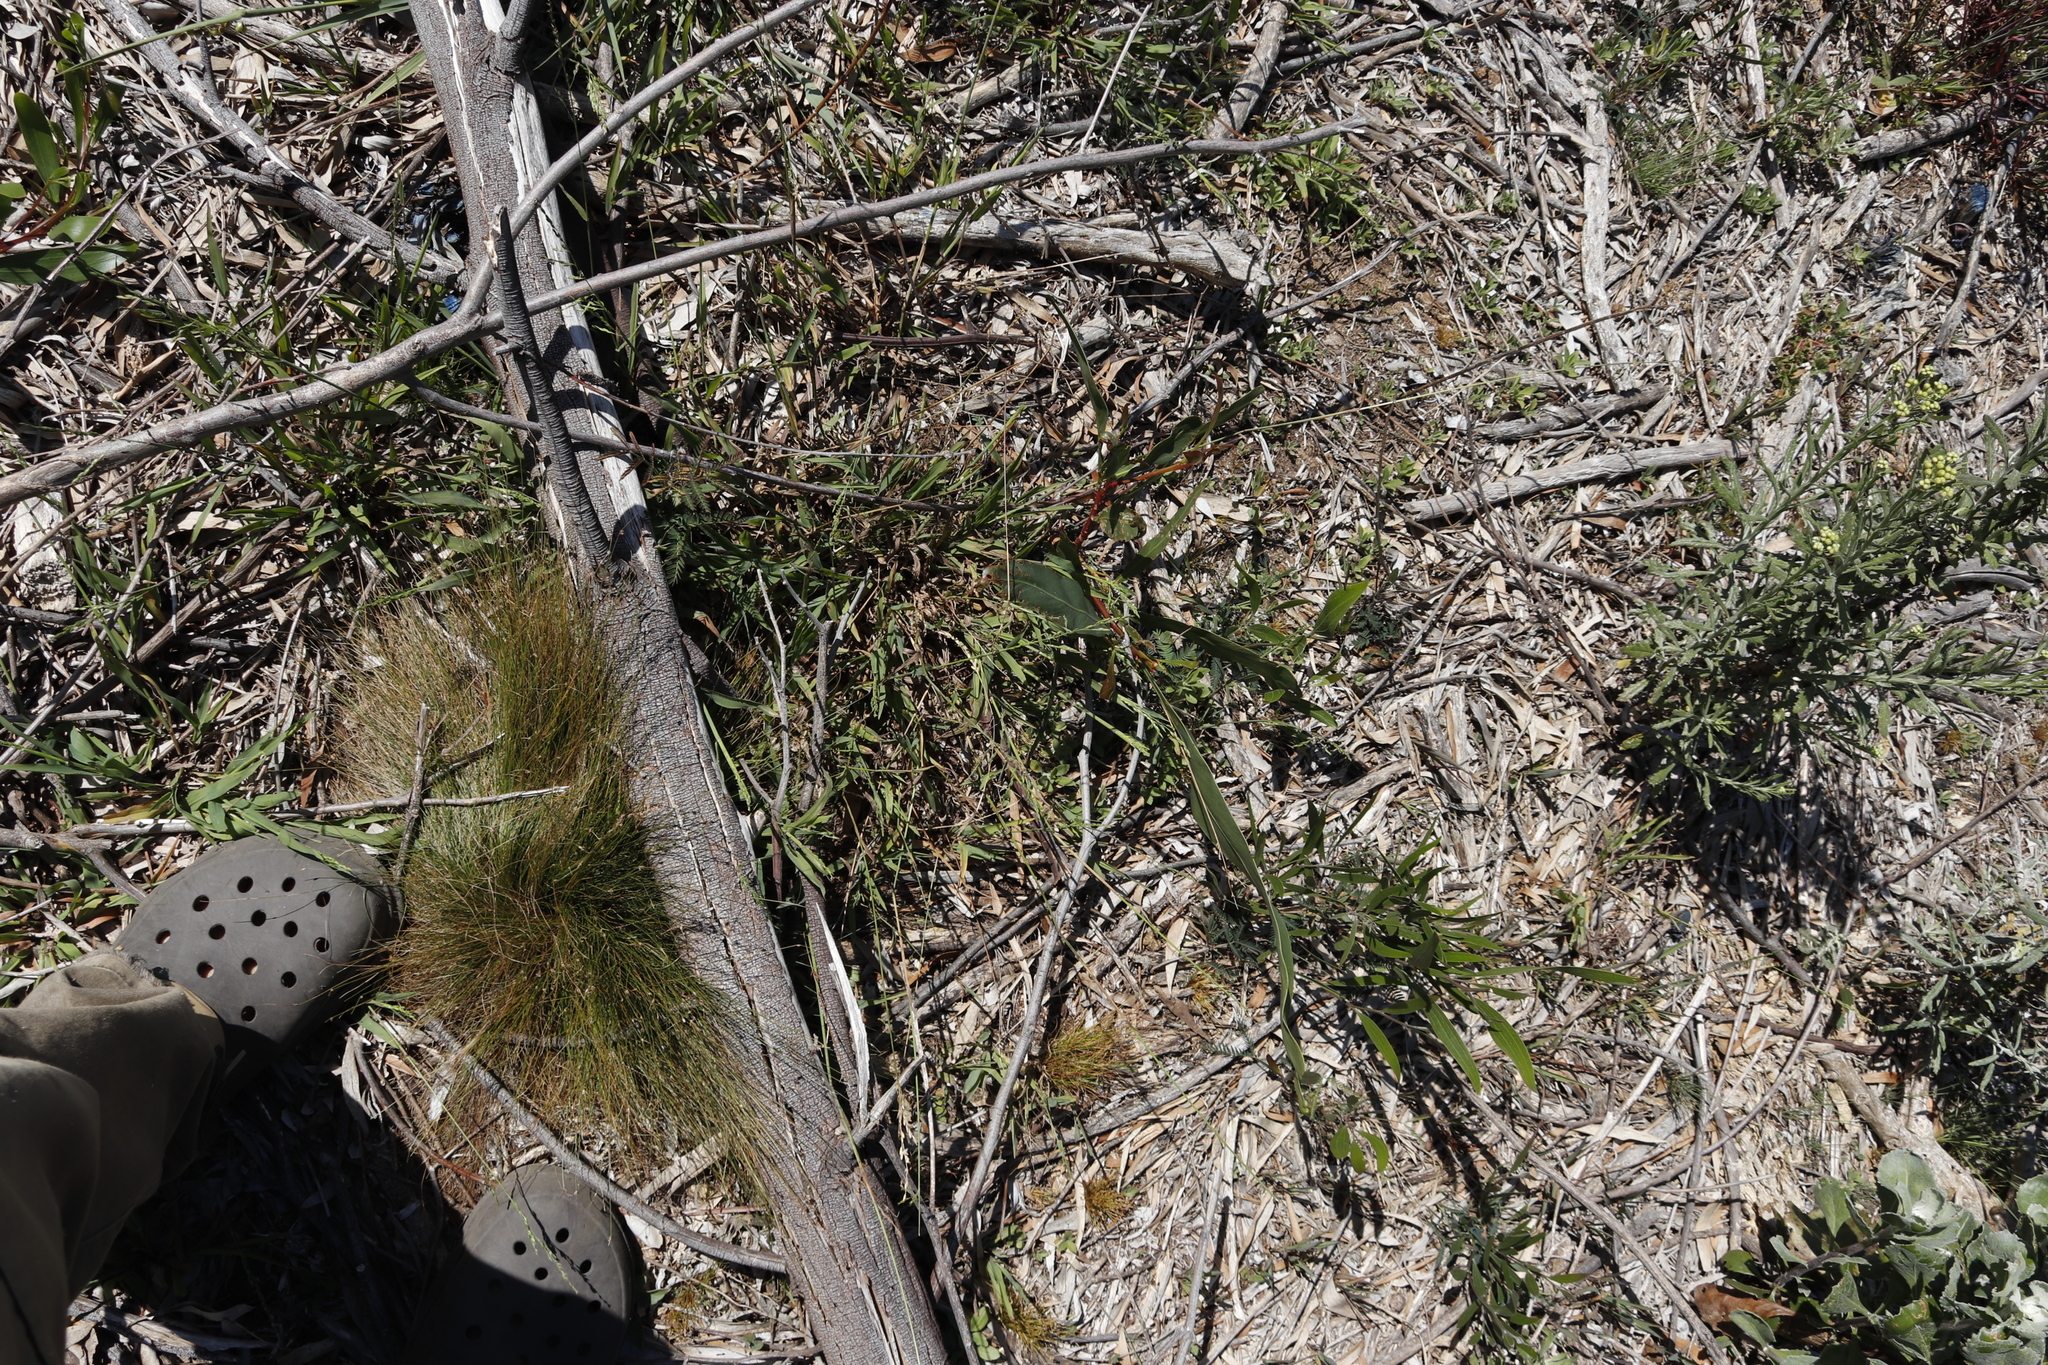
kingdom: Plantae
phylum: Tracheophyta
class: Magnoliopsida
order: Fabales
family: Fabaceae
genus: Acacia
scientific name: Acacia saligna
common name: Orange wattle
